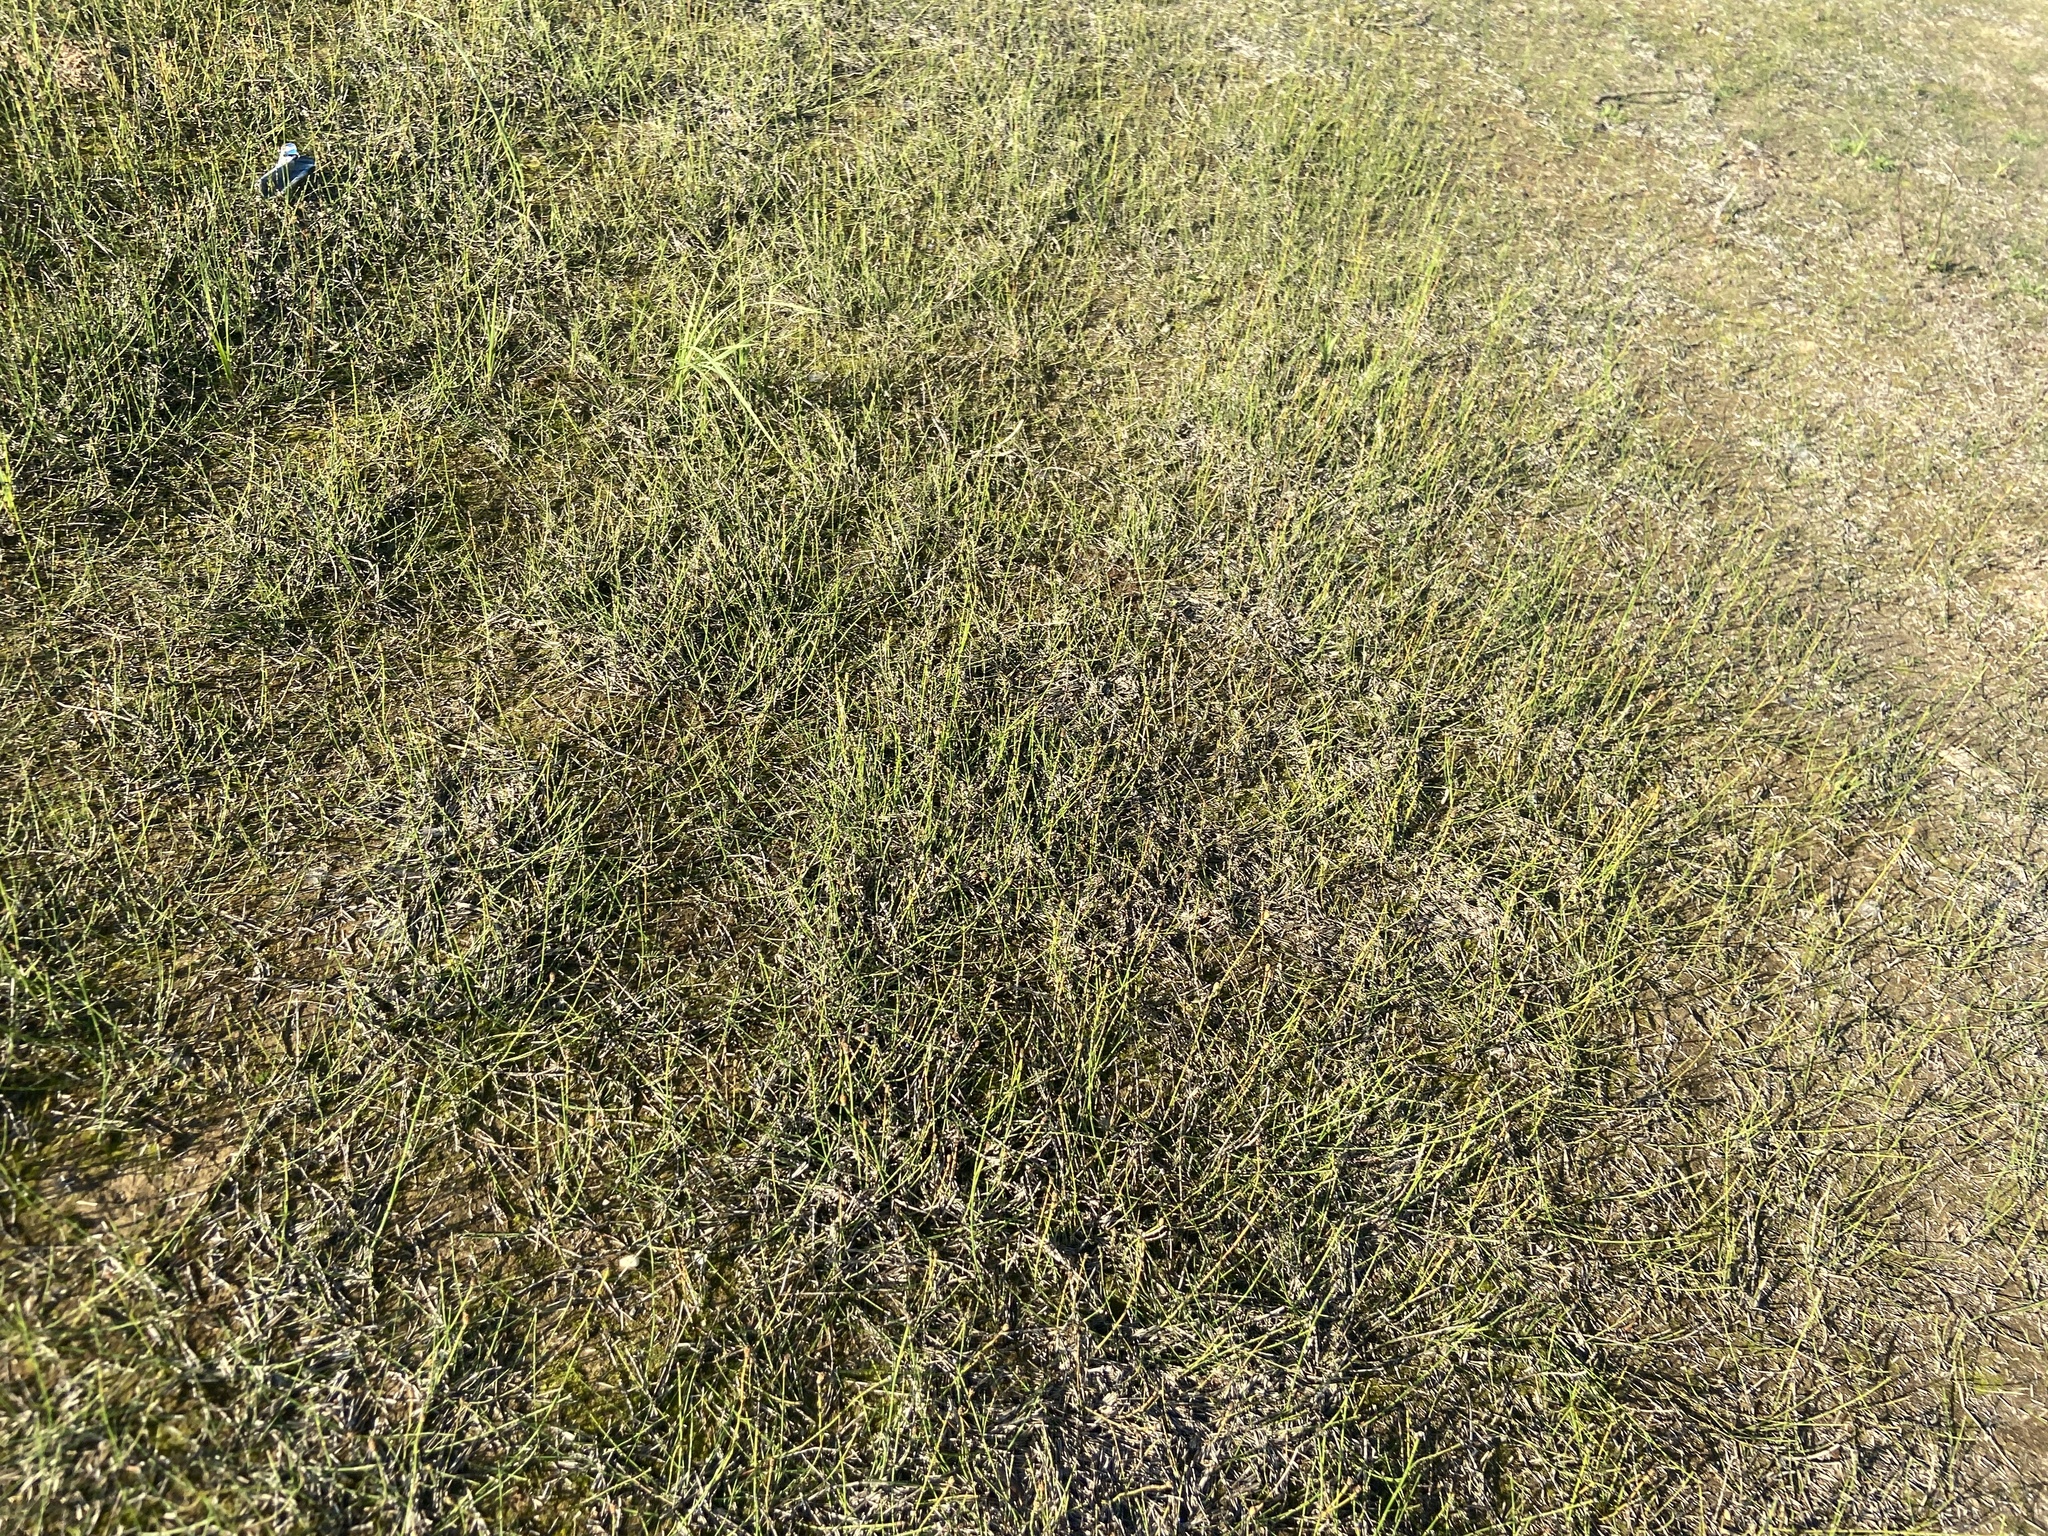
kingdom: Plantae
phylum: Tracheophyta
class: Polypodiopsida
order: Equisetales
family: Equisetaceae
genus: Equisetum
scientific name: Equisetum variegatum
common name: Variegated horsetail
